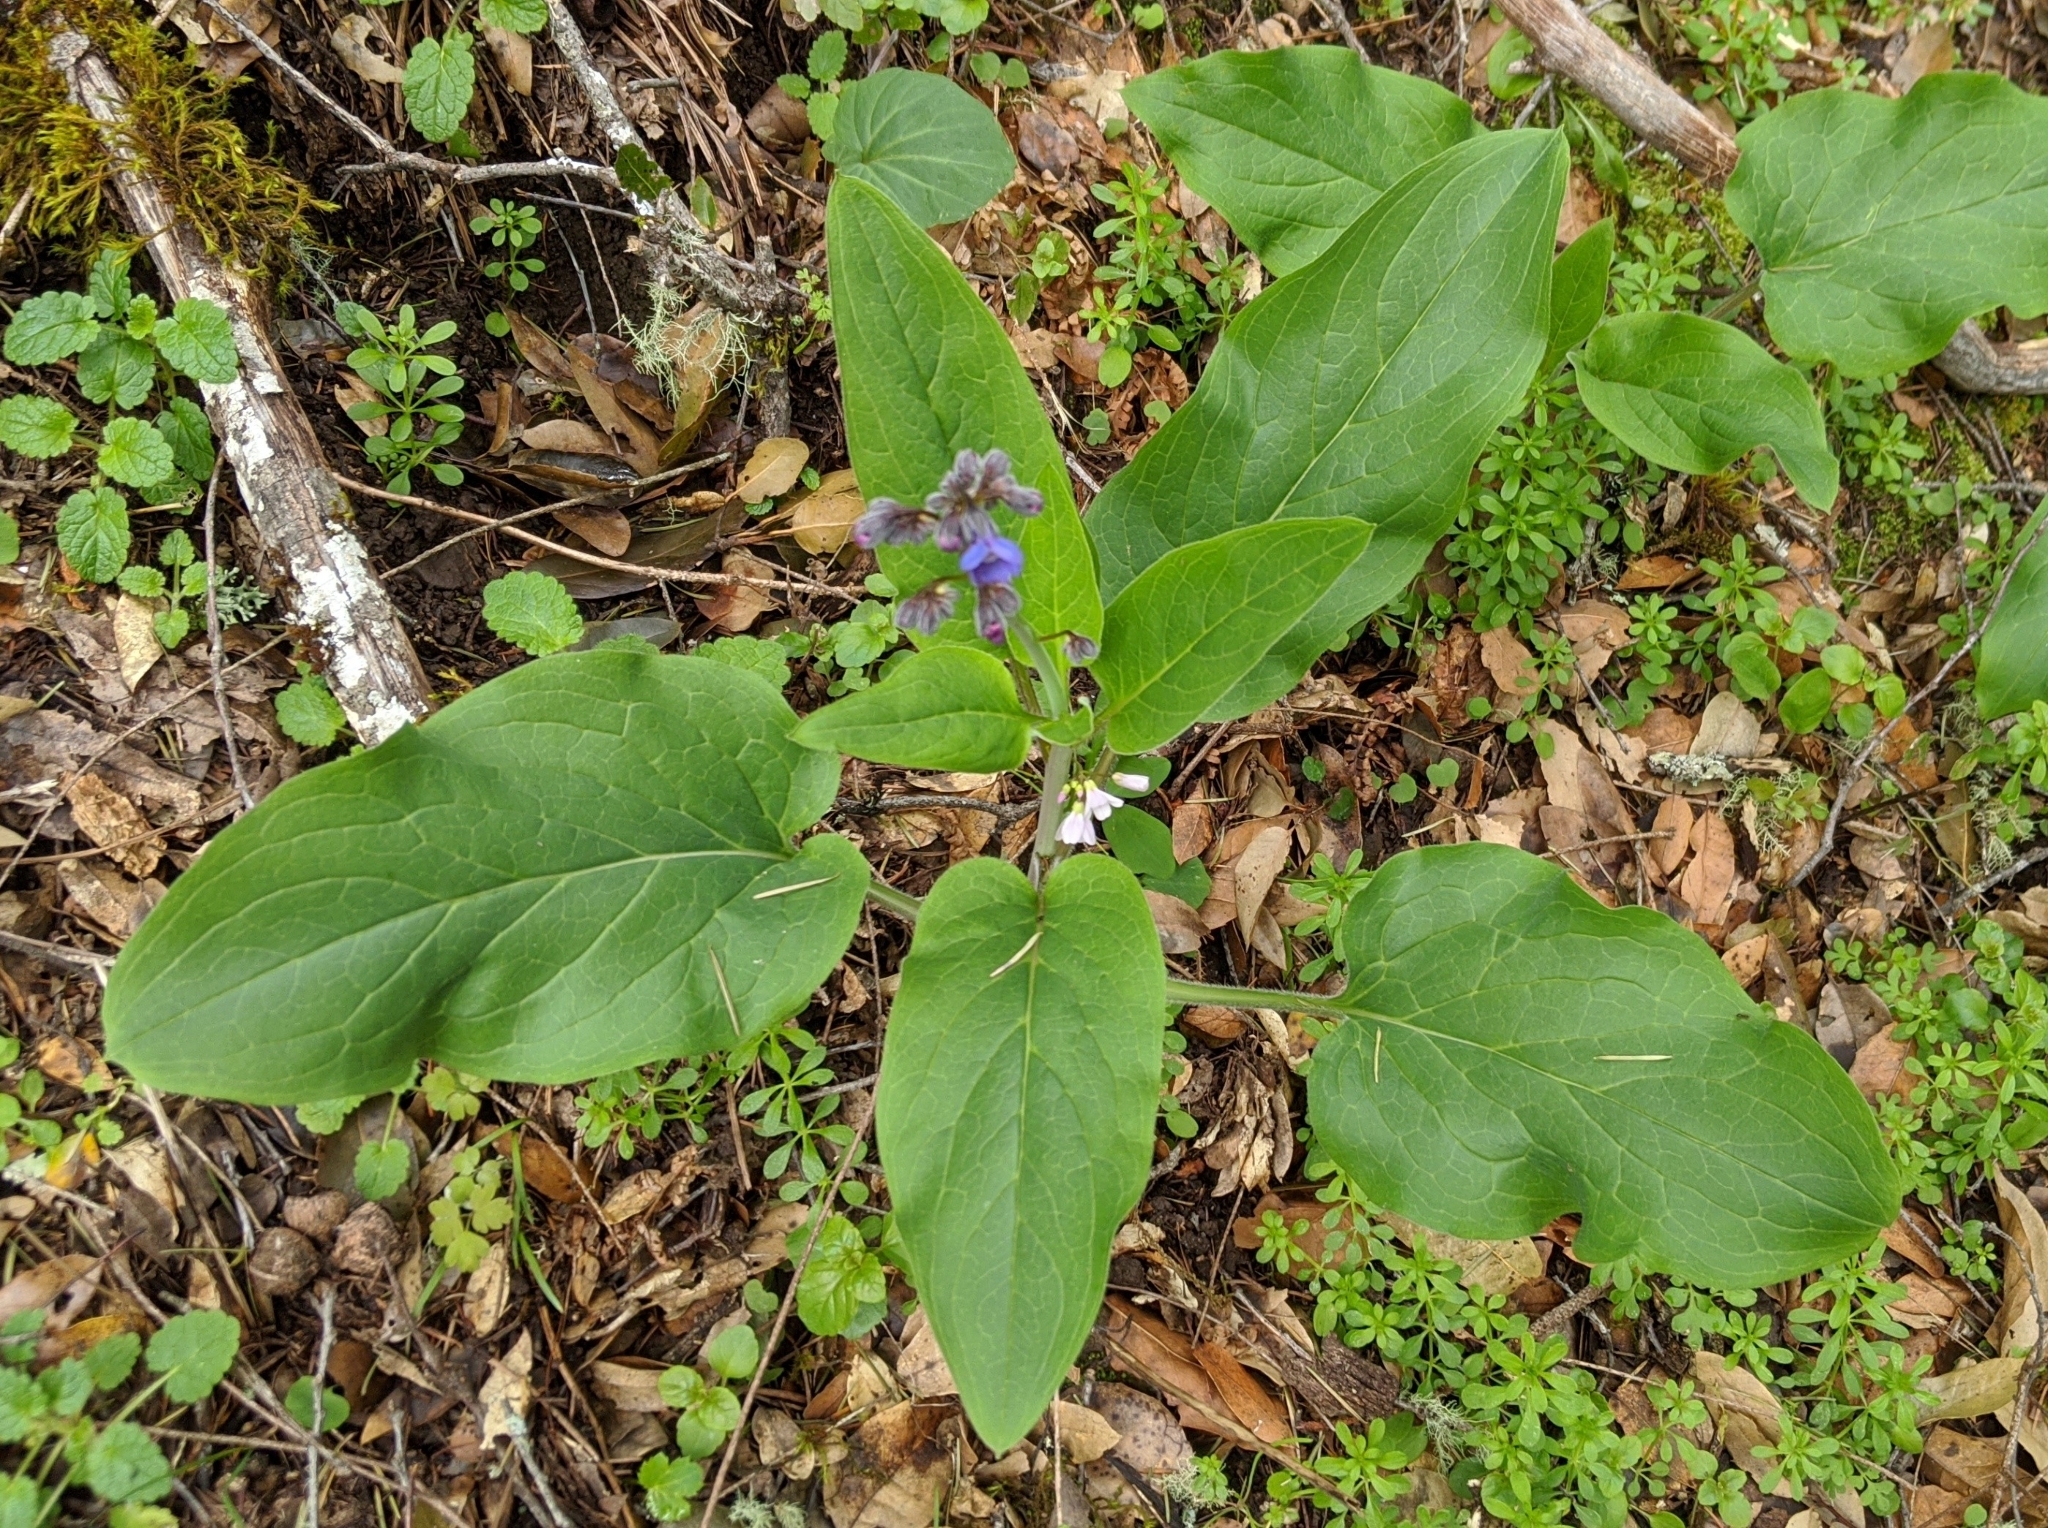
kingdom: Plantae
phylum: Tracheophyta
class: Magnoliopsida
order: Boraginales
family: Boraginaceae
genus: Adelinia
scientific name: Adelinia grande
